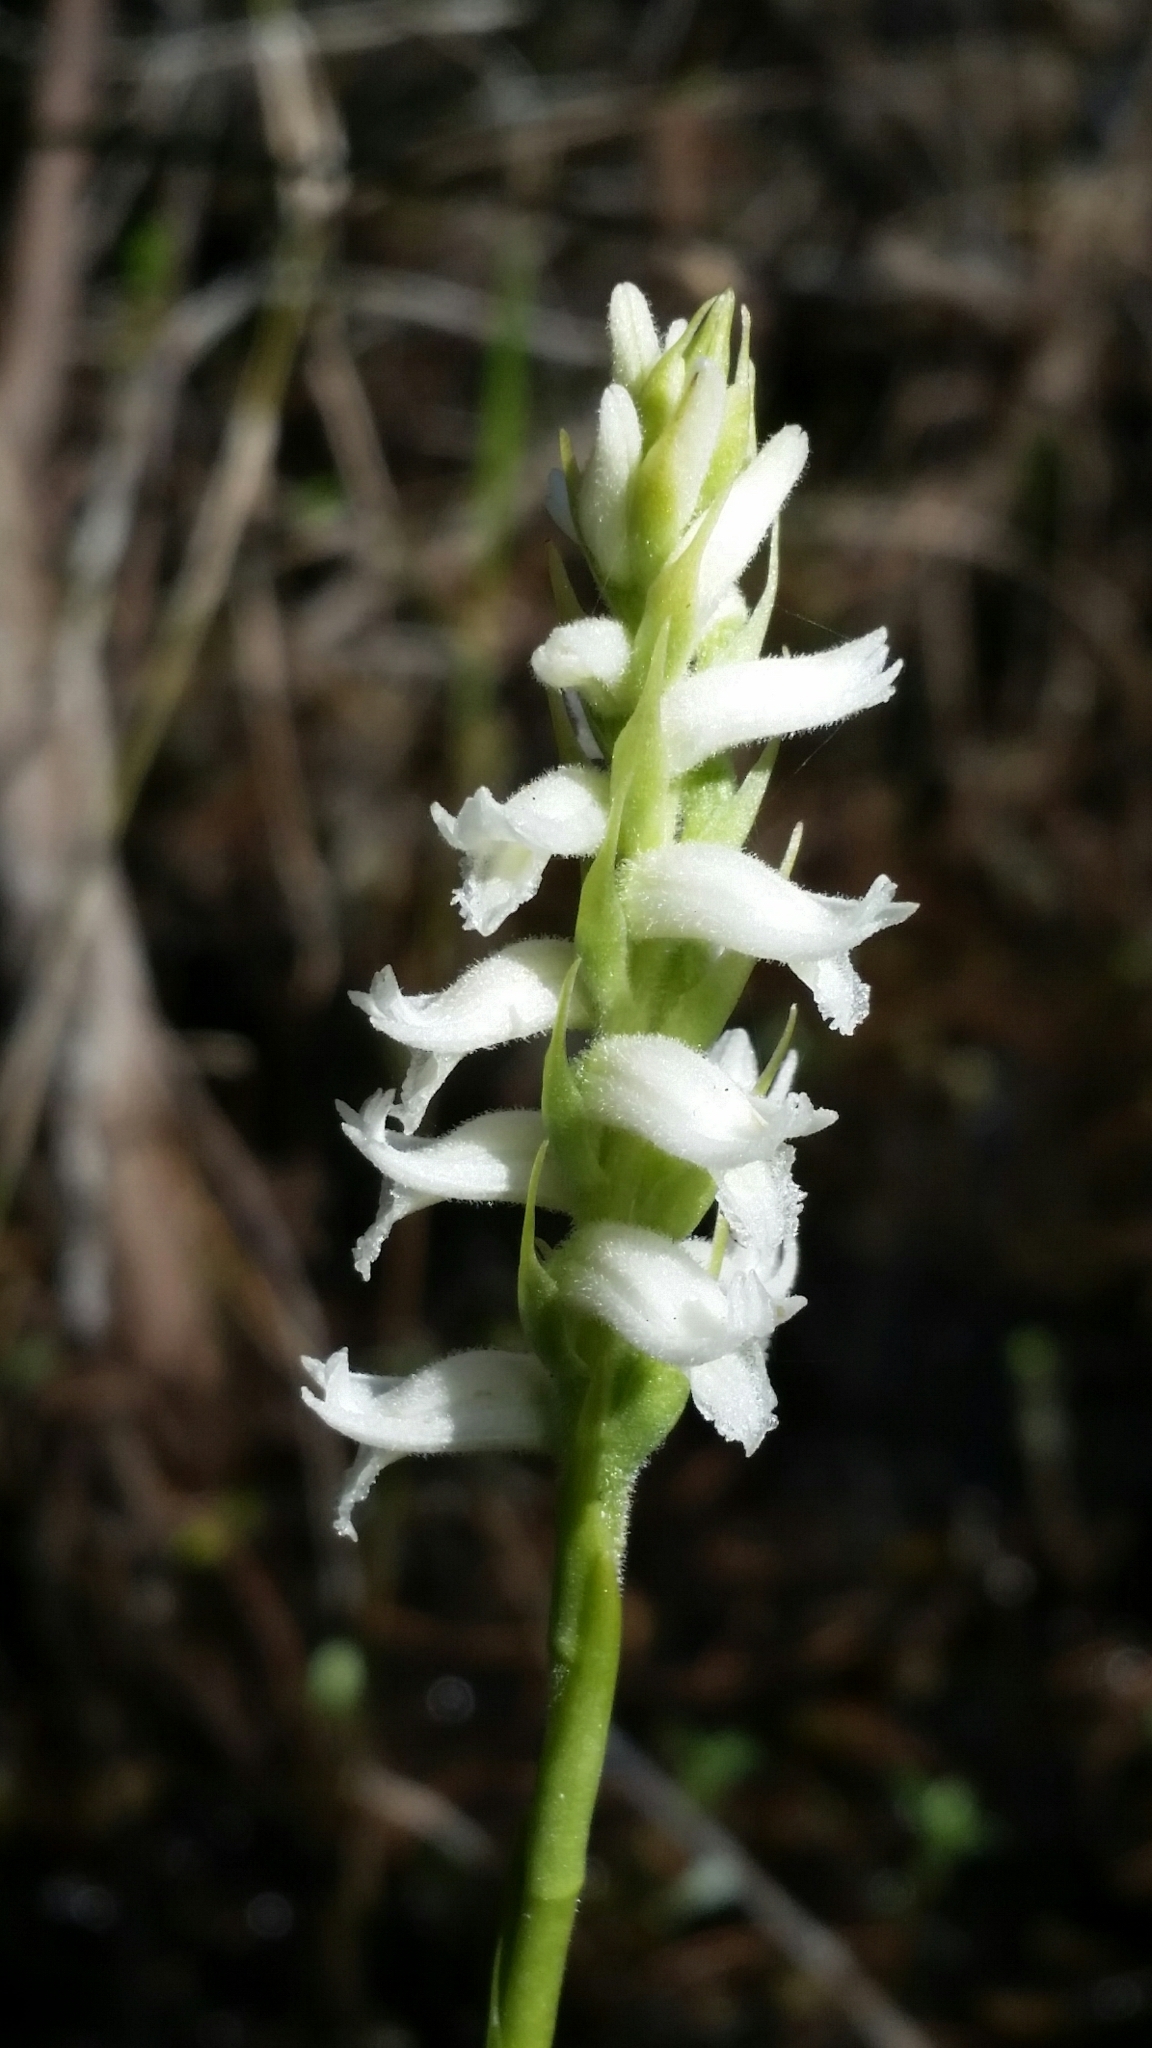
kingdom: Plantae
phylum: Tracheophyta
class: Liliopsida
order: Asparagales
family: Orchidaceae
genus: Spiranthes
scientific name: Spiranthes odorata
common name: Marsh ladies'-tresses
